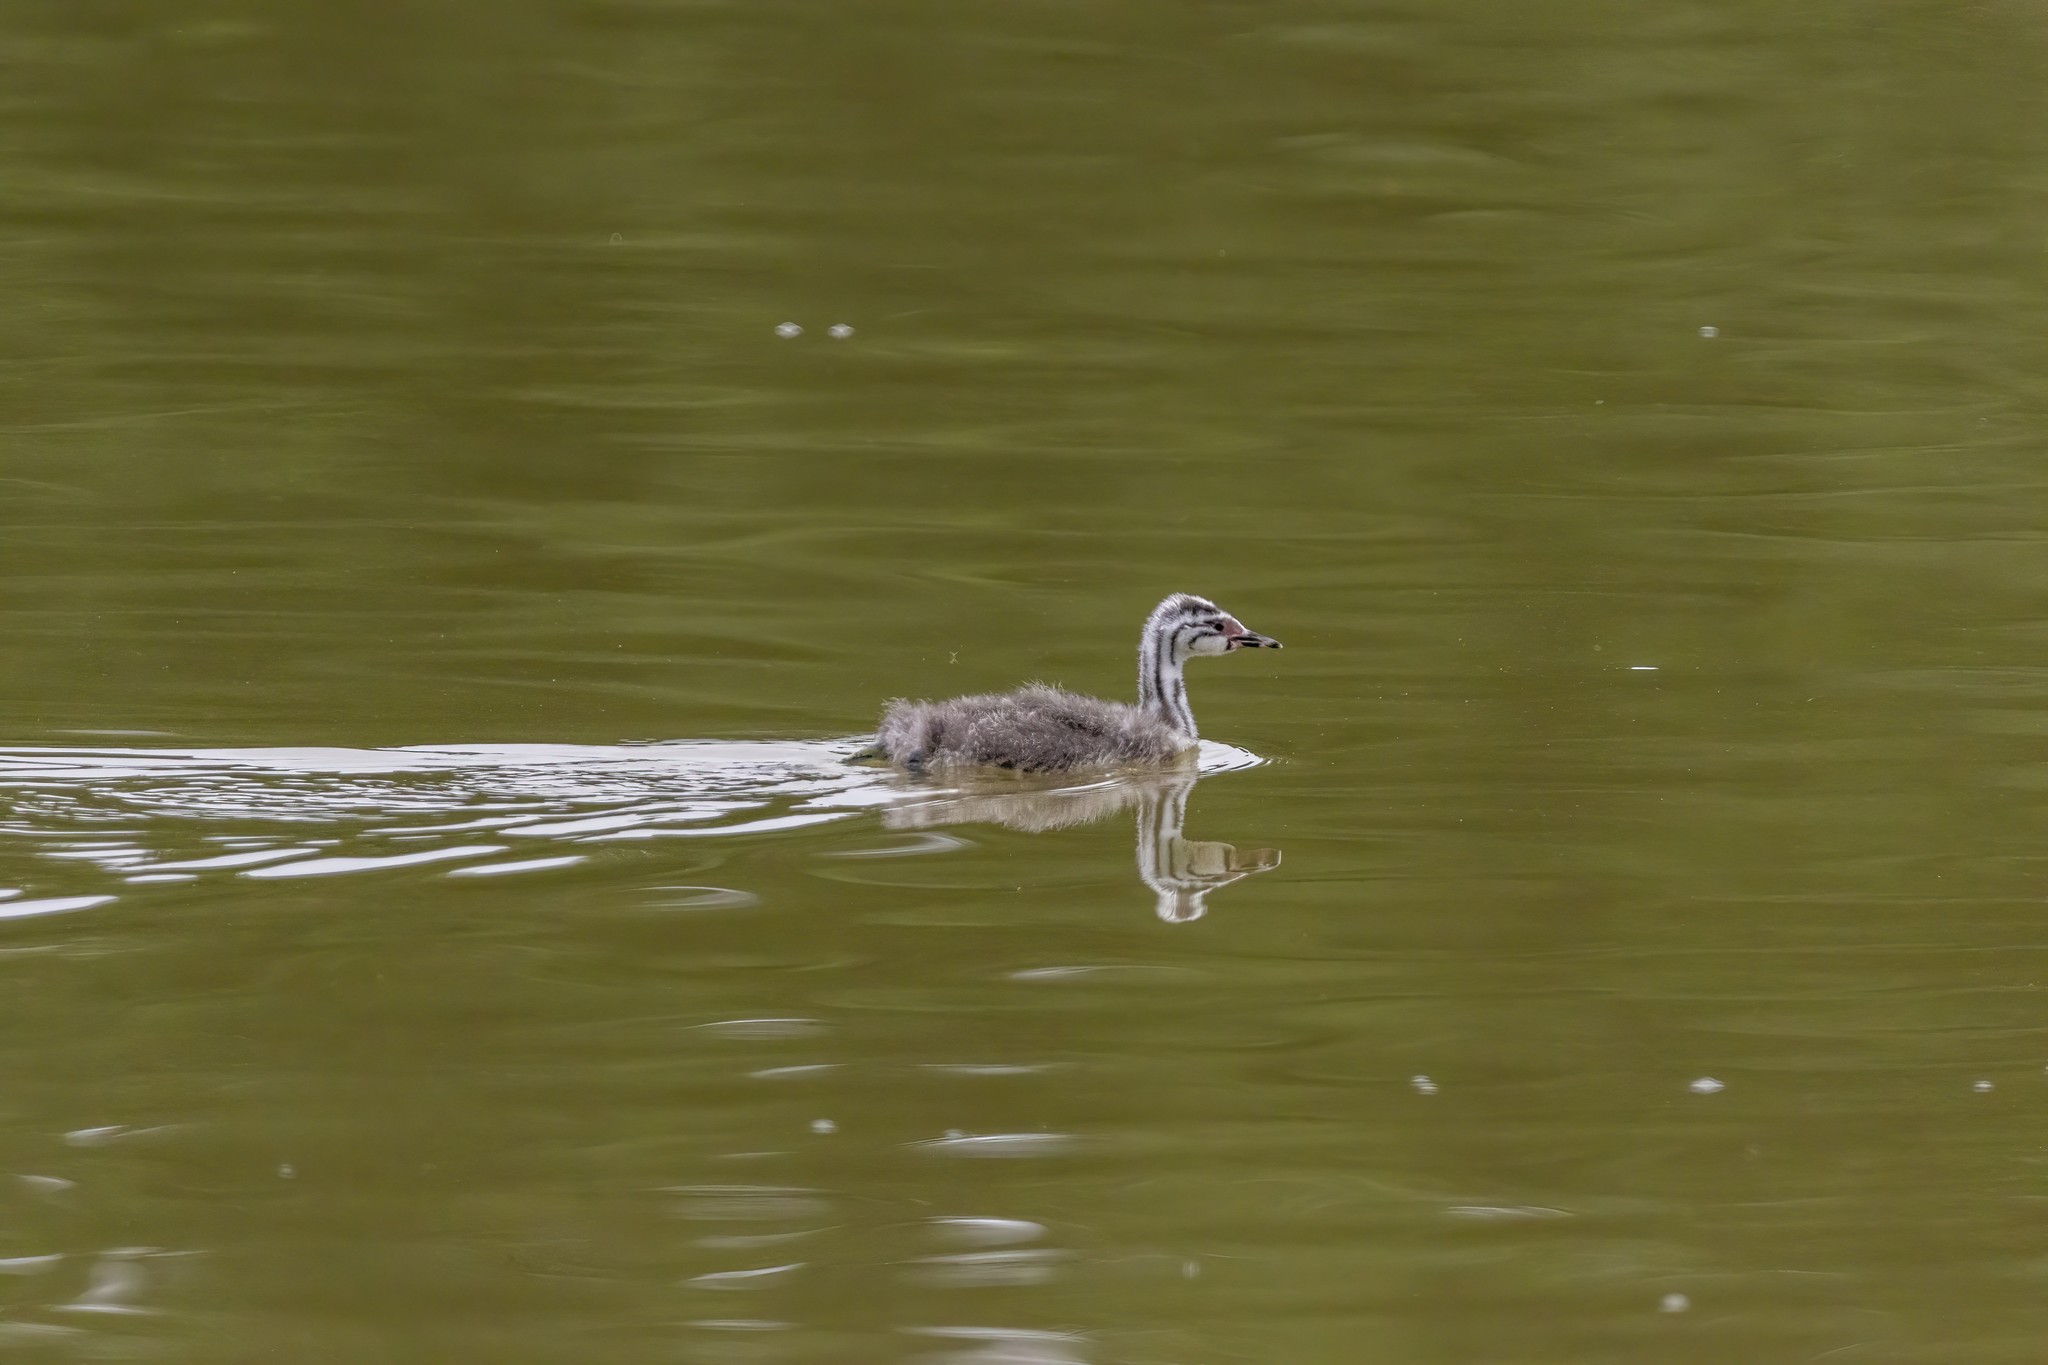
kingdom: Animalia
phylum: Chordata
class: Aves
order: Podicipediformes
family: Podicipedidae
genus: Podiceps
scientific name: Podiceps cristatus
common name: Great crested grebe
